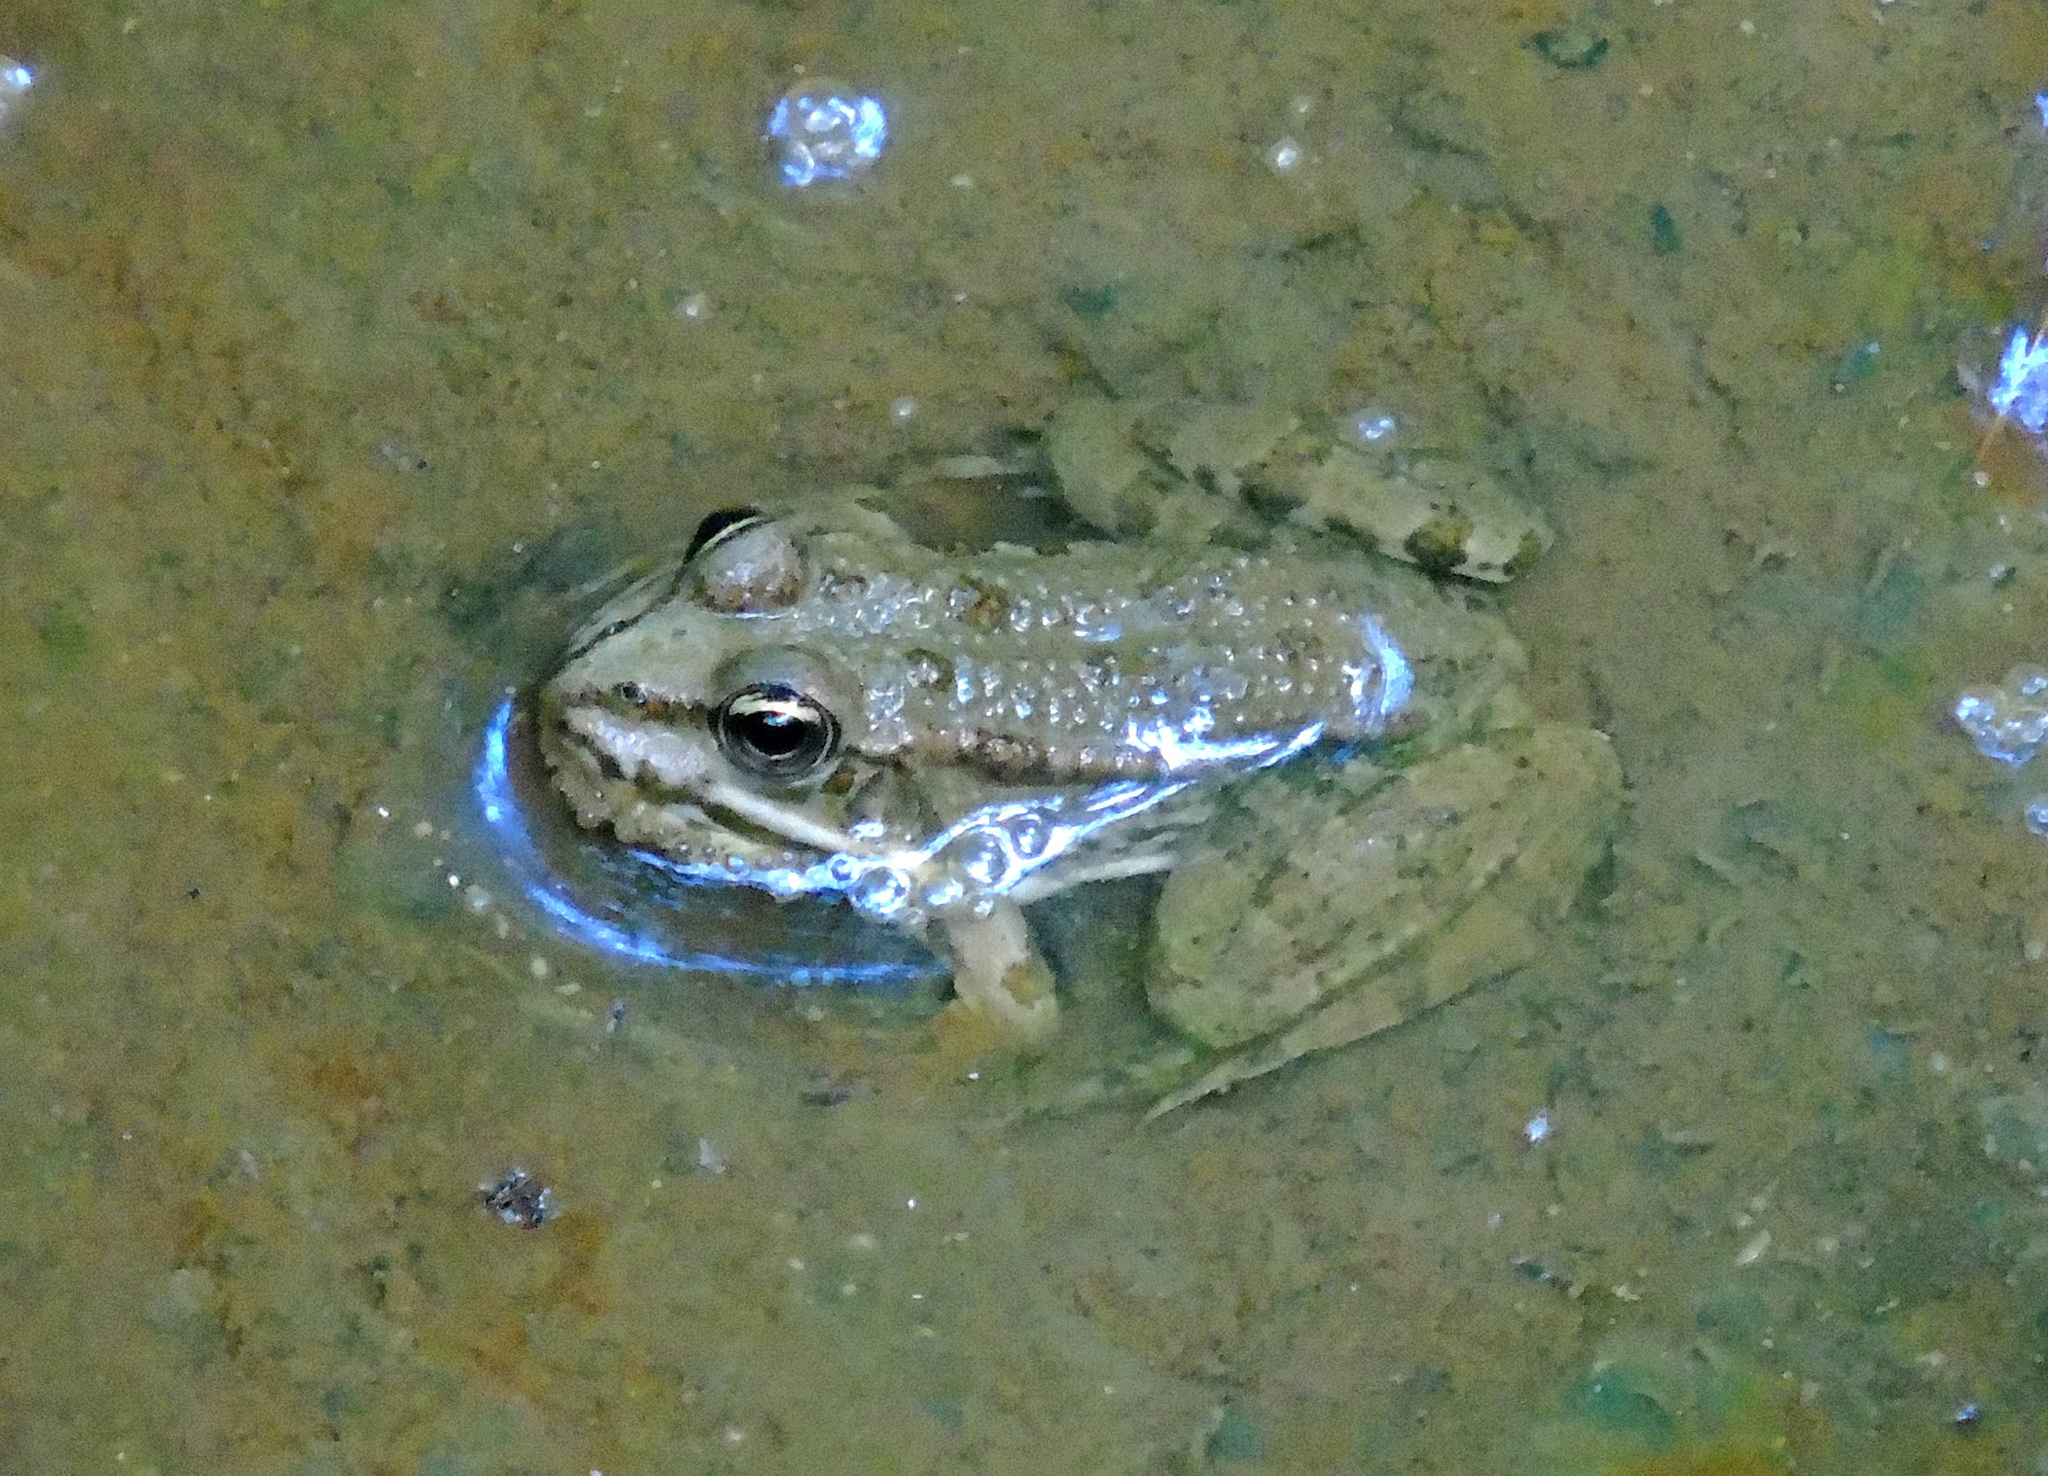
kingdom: Animalia
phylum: Chordata
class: Amphibia
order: Anura
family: Ranidae
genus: Pelophylax
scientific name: Pelophylax ridibundus
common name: Marsh frog
